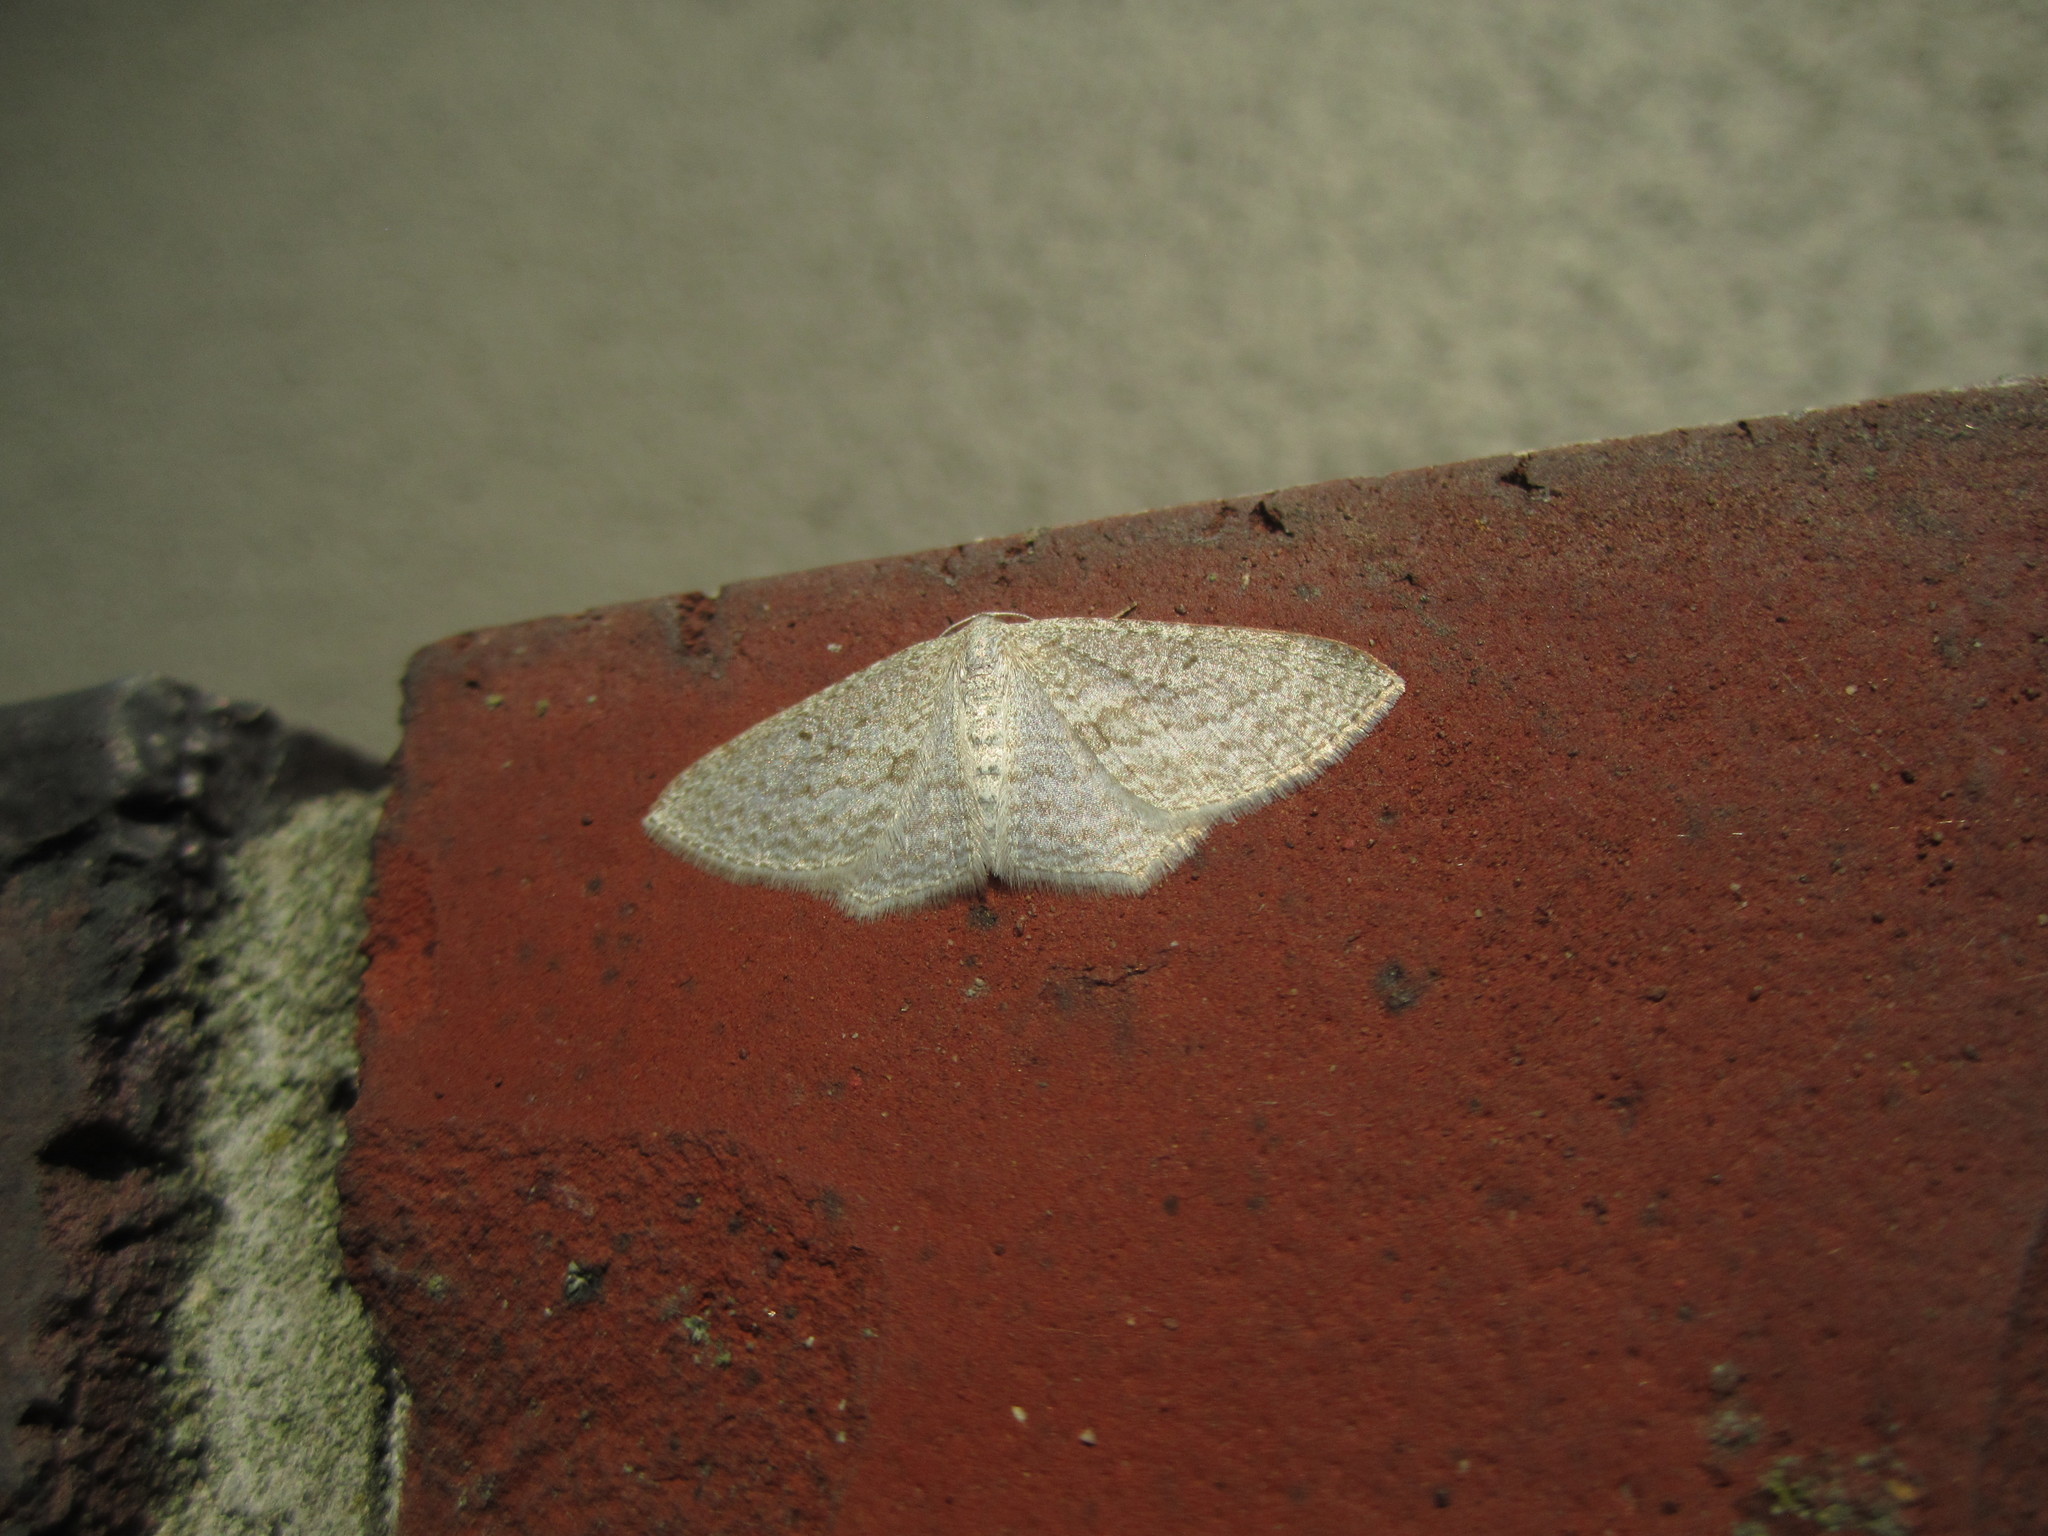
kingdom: Animalia
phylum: Arthropoda
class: Insecta
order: Lepidoptera
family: Geometridae
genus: Poecilasthena
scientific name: Poecilasthena pulchraria
